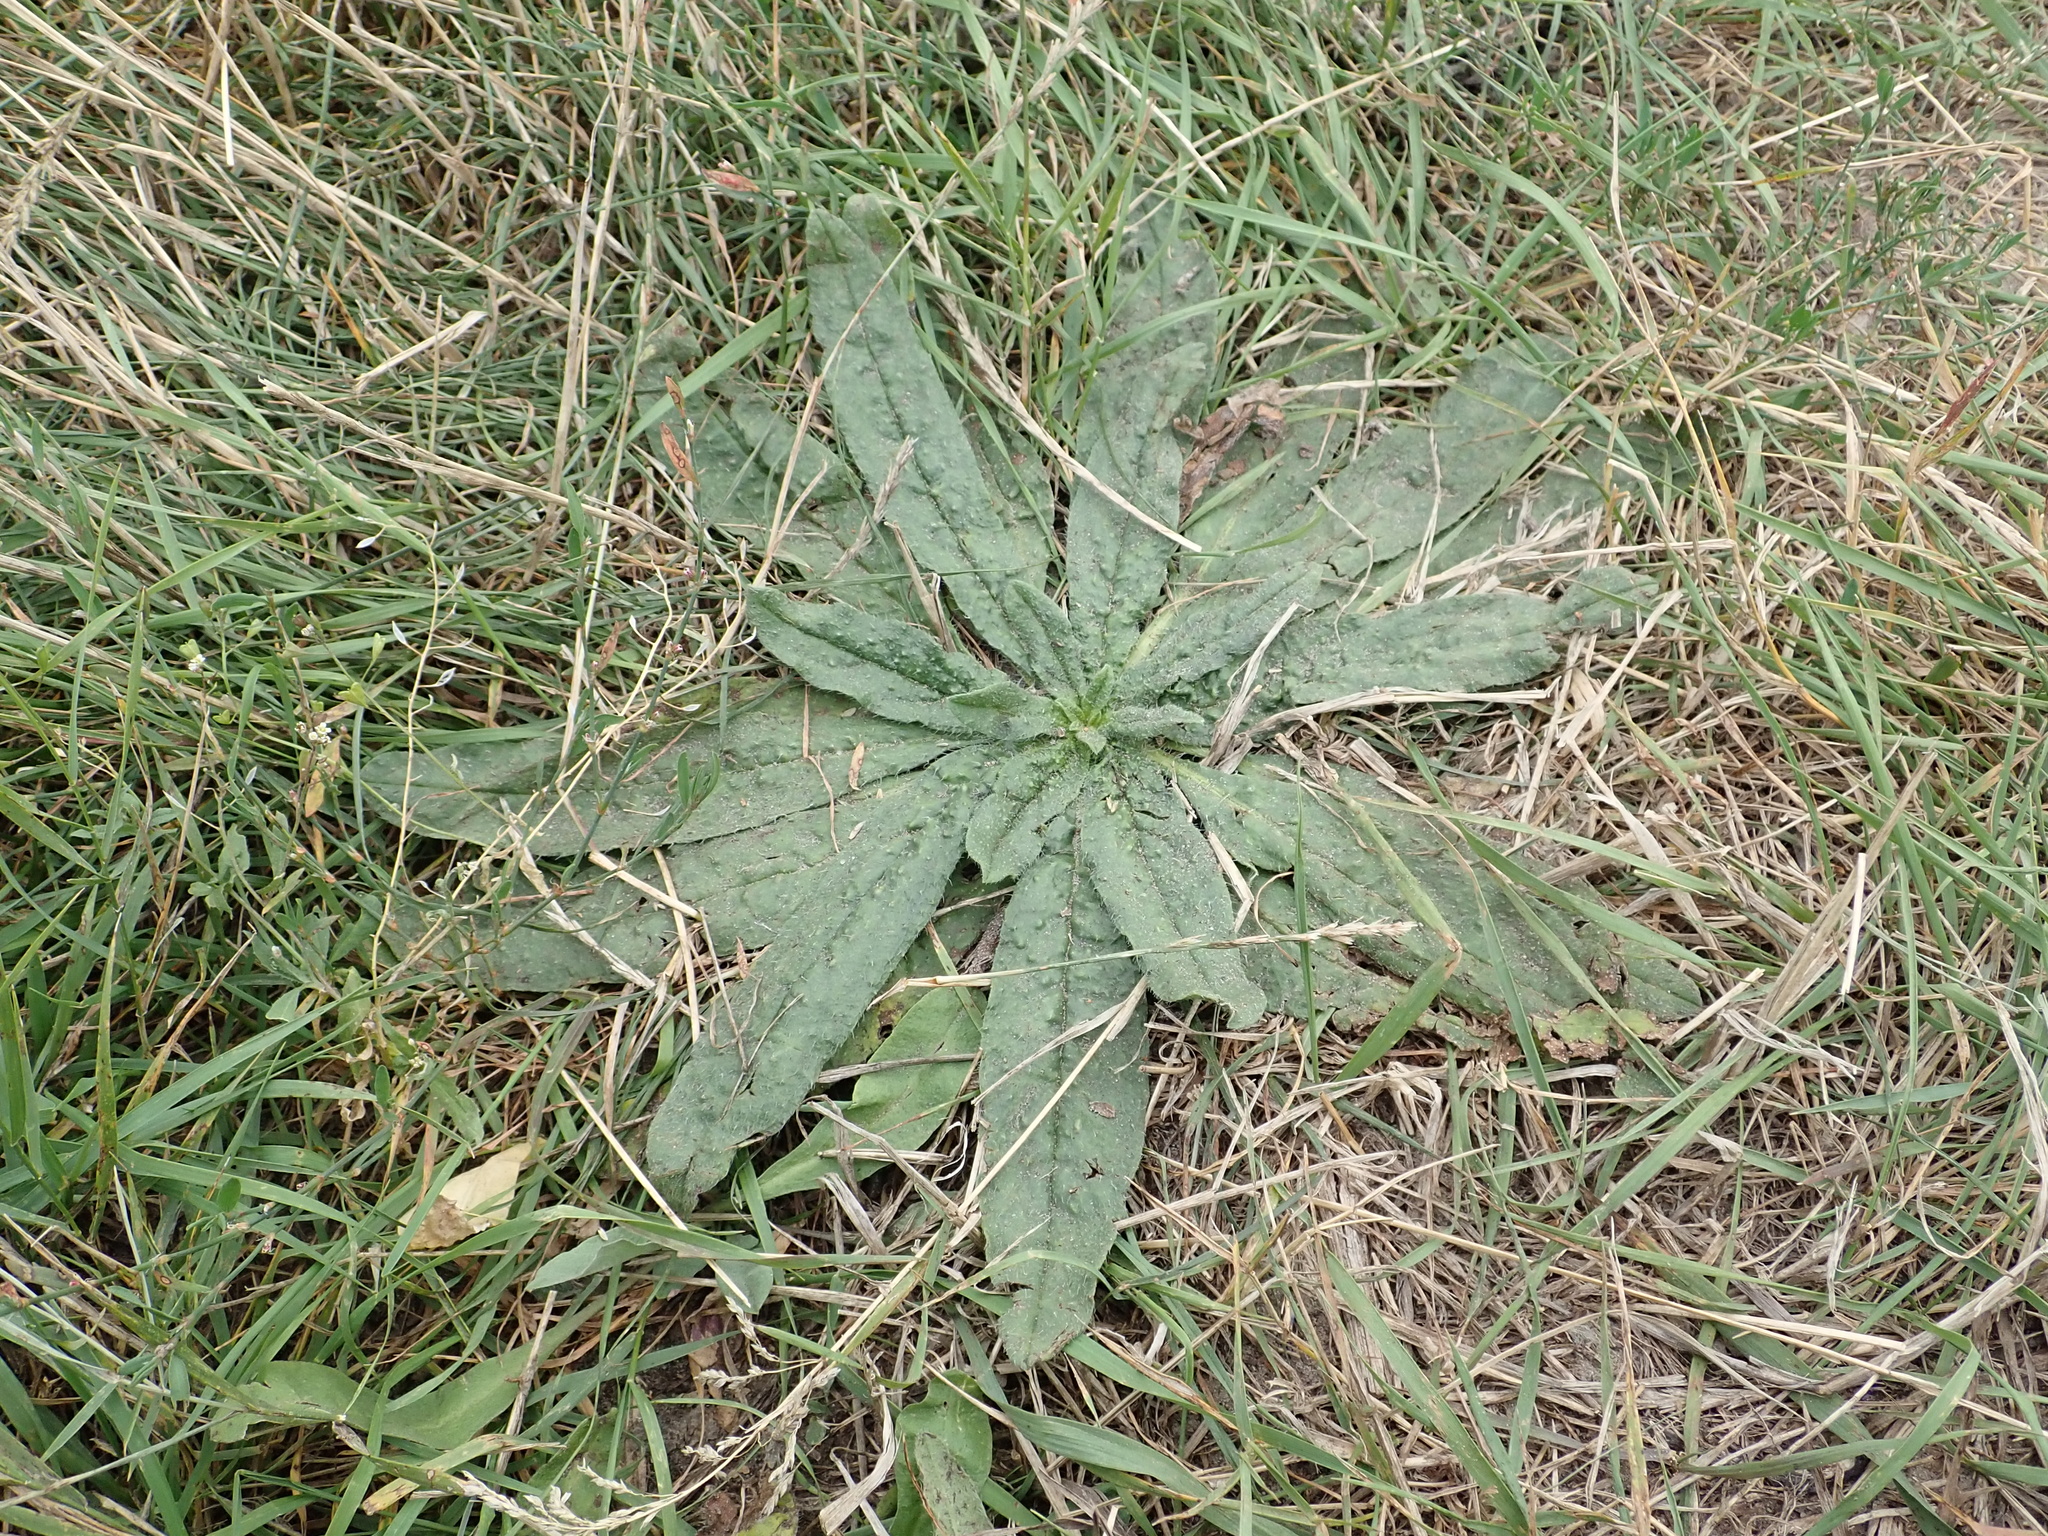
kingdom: Plantae
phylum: Tracheophyta
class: Magnoliopsida
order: Boraginales
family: Boraginaceae
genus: Echium
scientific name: Echium vulgare
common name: Common viper's bugloss
